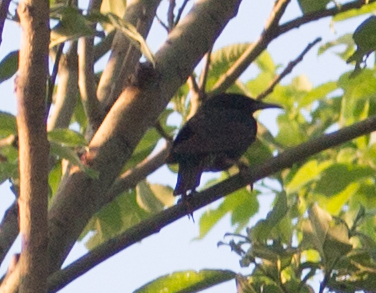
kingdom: Animalia
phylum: Chordata
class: Aves
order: Passeriformes
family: Sturnidae
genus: Sturnus
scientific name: Sturnus vulgaris
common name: Common starling
